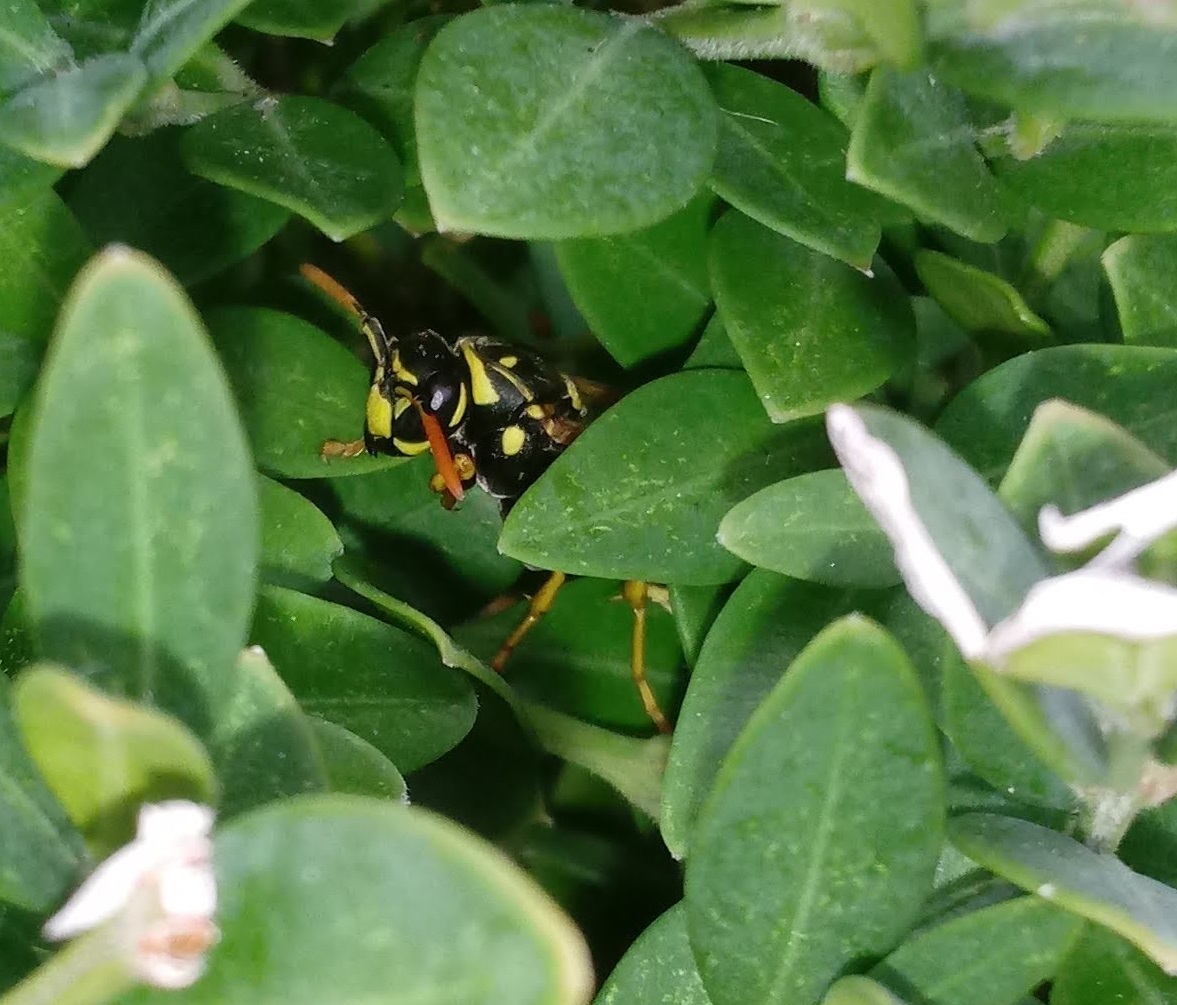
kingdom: Animalia
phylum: Arthropoda
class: Insecta
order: Hymenoptera
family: Eumenidae
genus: Polistes
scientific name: Polistes dominula
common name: Paper wasp
